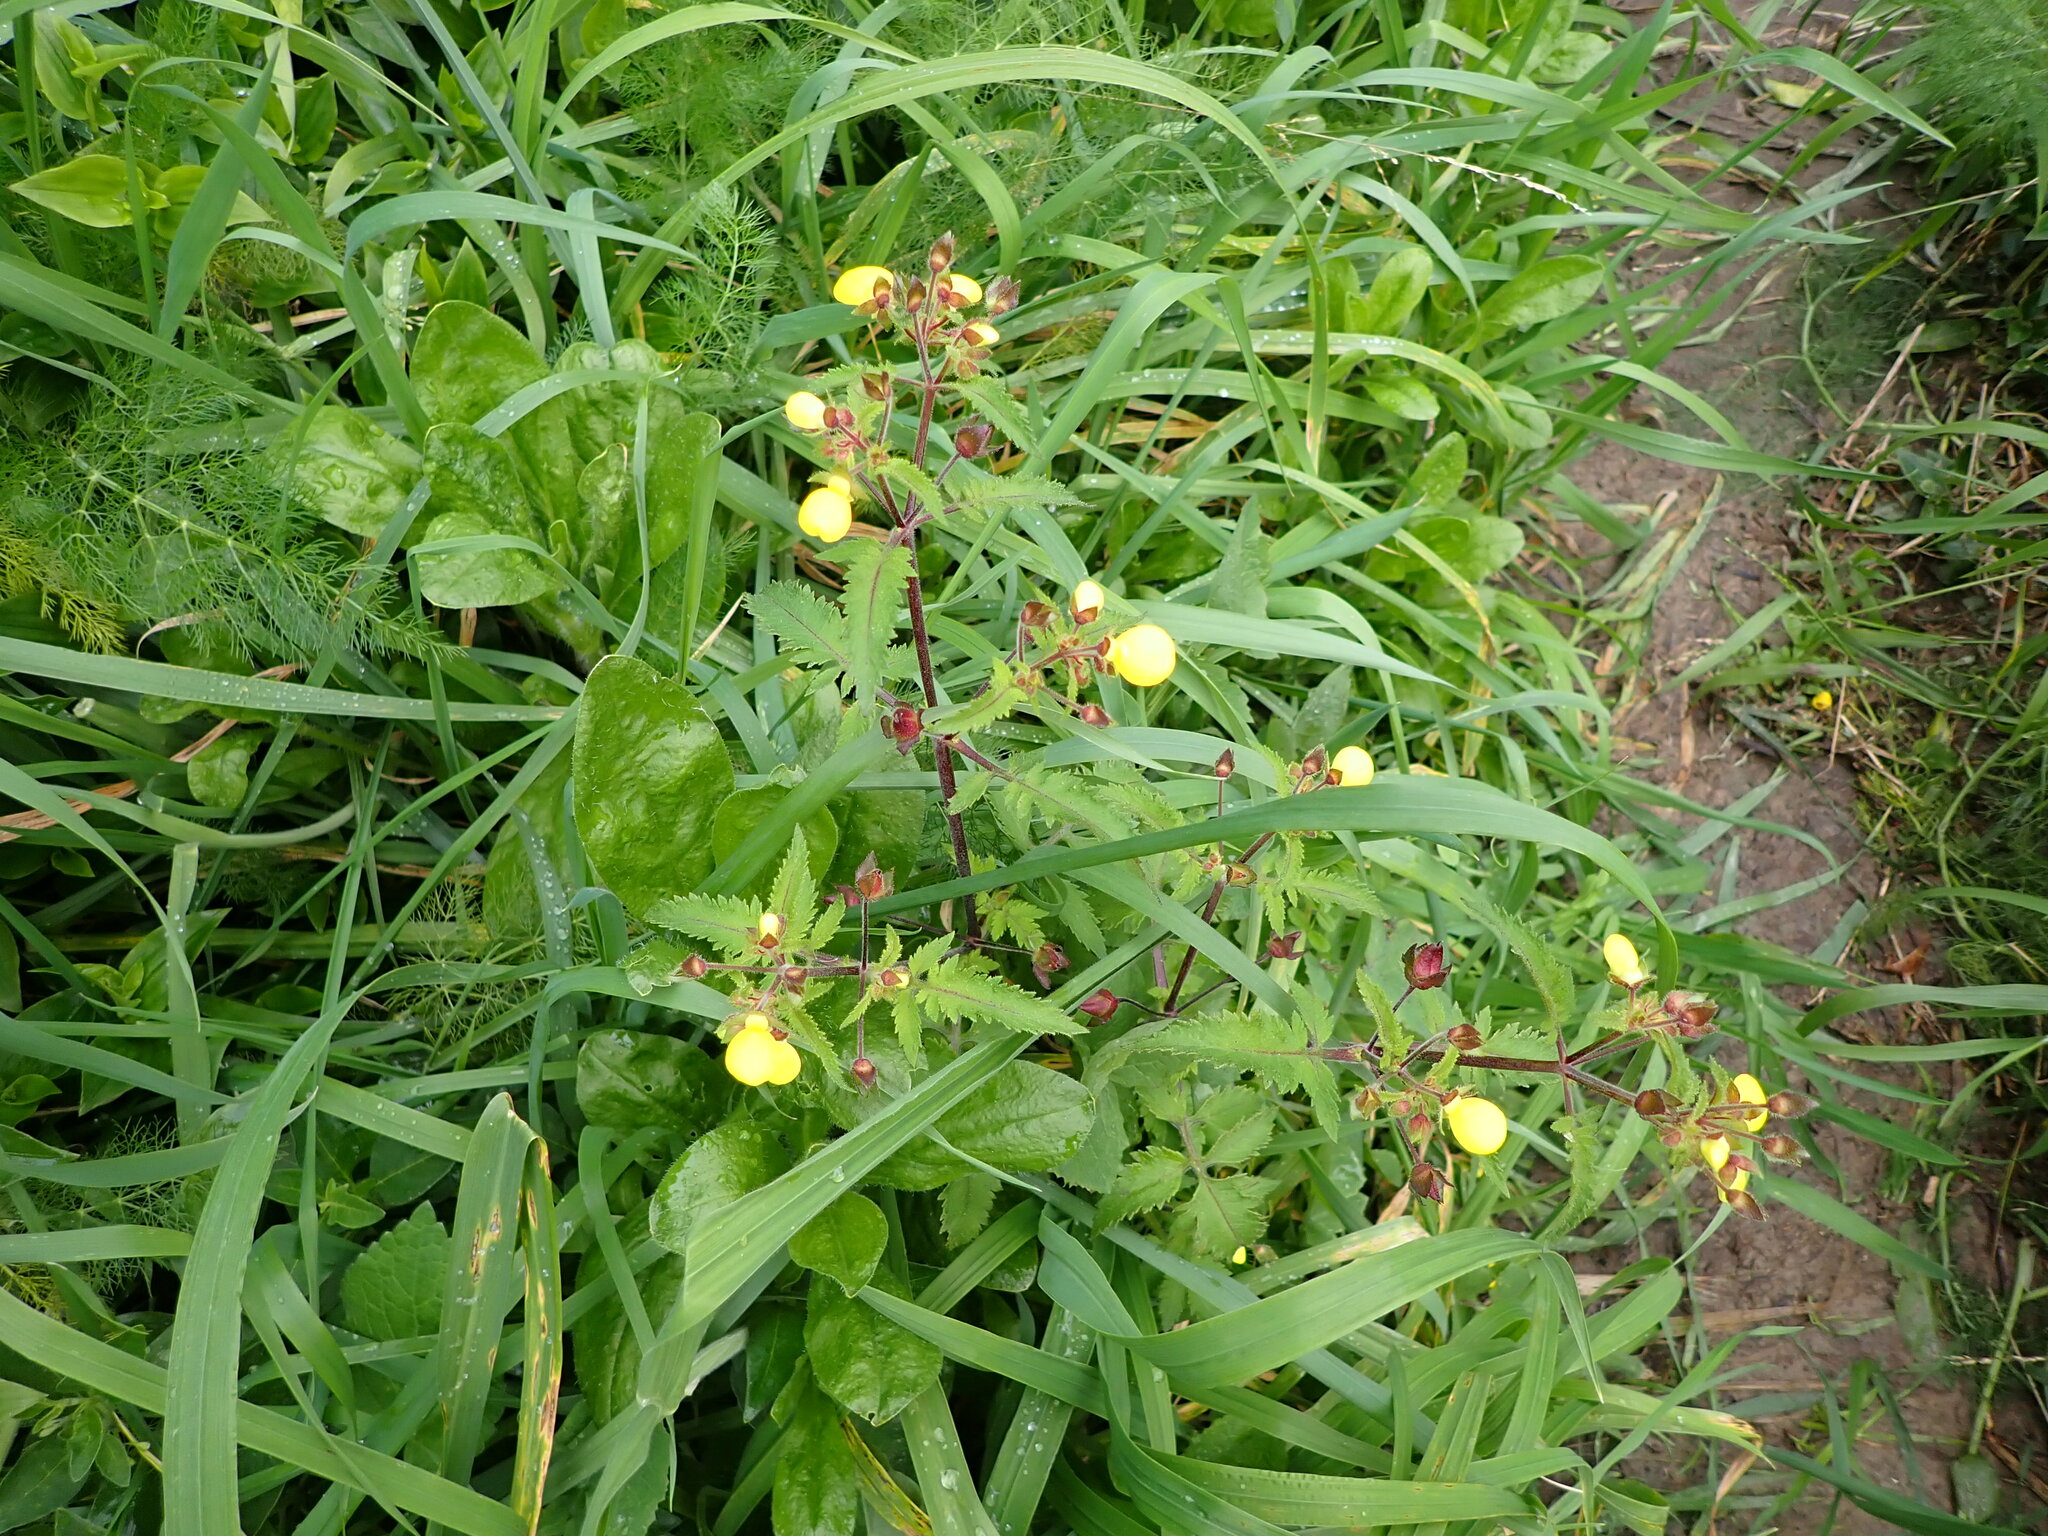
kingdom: Plantae
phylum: Tracheophyta
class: Magnoliopsida
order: Lamiales
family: Calceolariaceae
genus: Calceolaria
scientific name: Calceolaria tripartita
